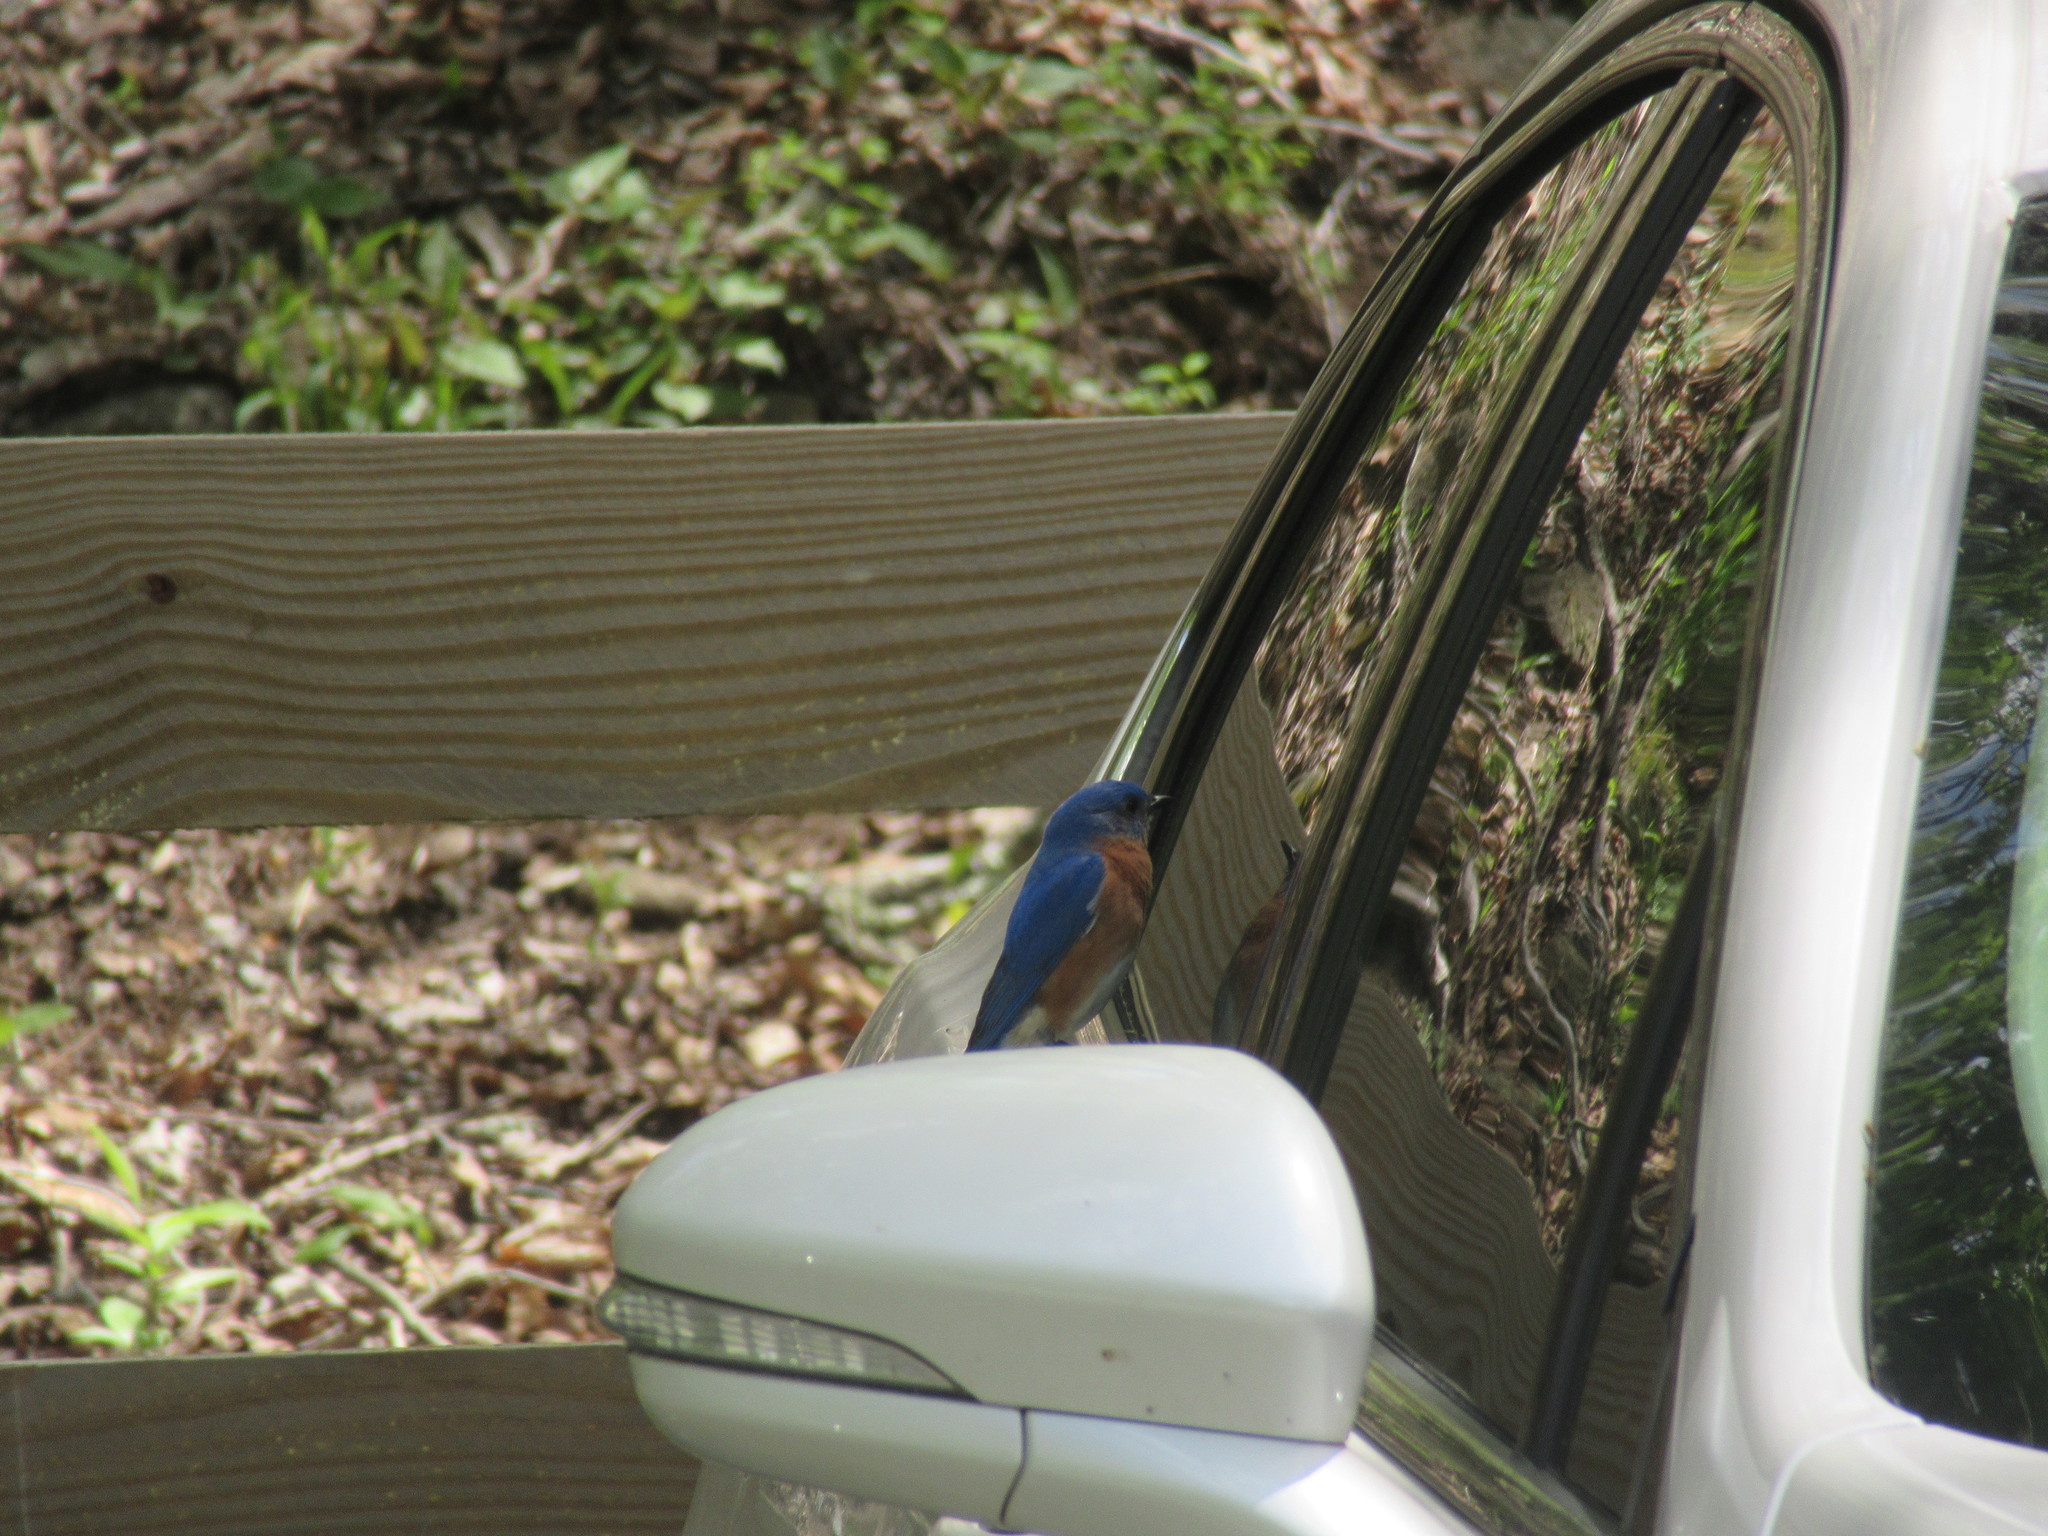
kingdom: Animalia
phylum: Chordata
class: Aves
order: Passeriformes
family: Turdidae
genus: Sialia
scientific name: Sialia sialis
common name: Eastern bluebird
